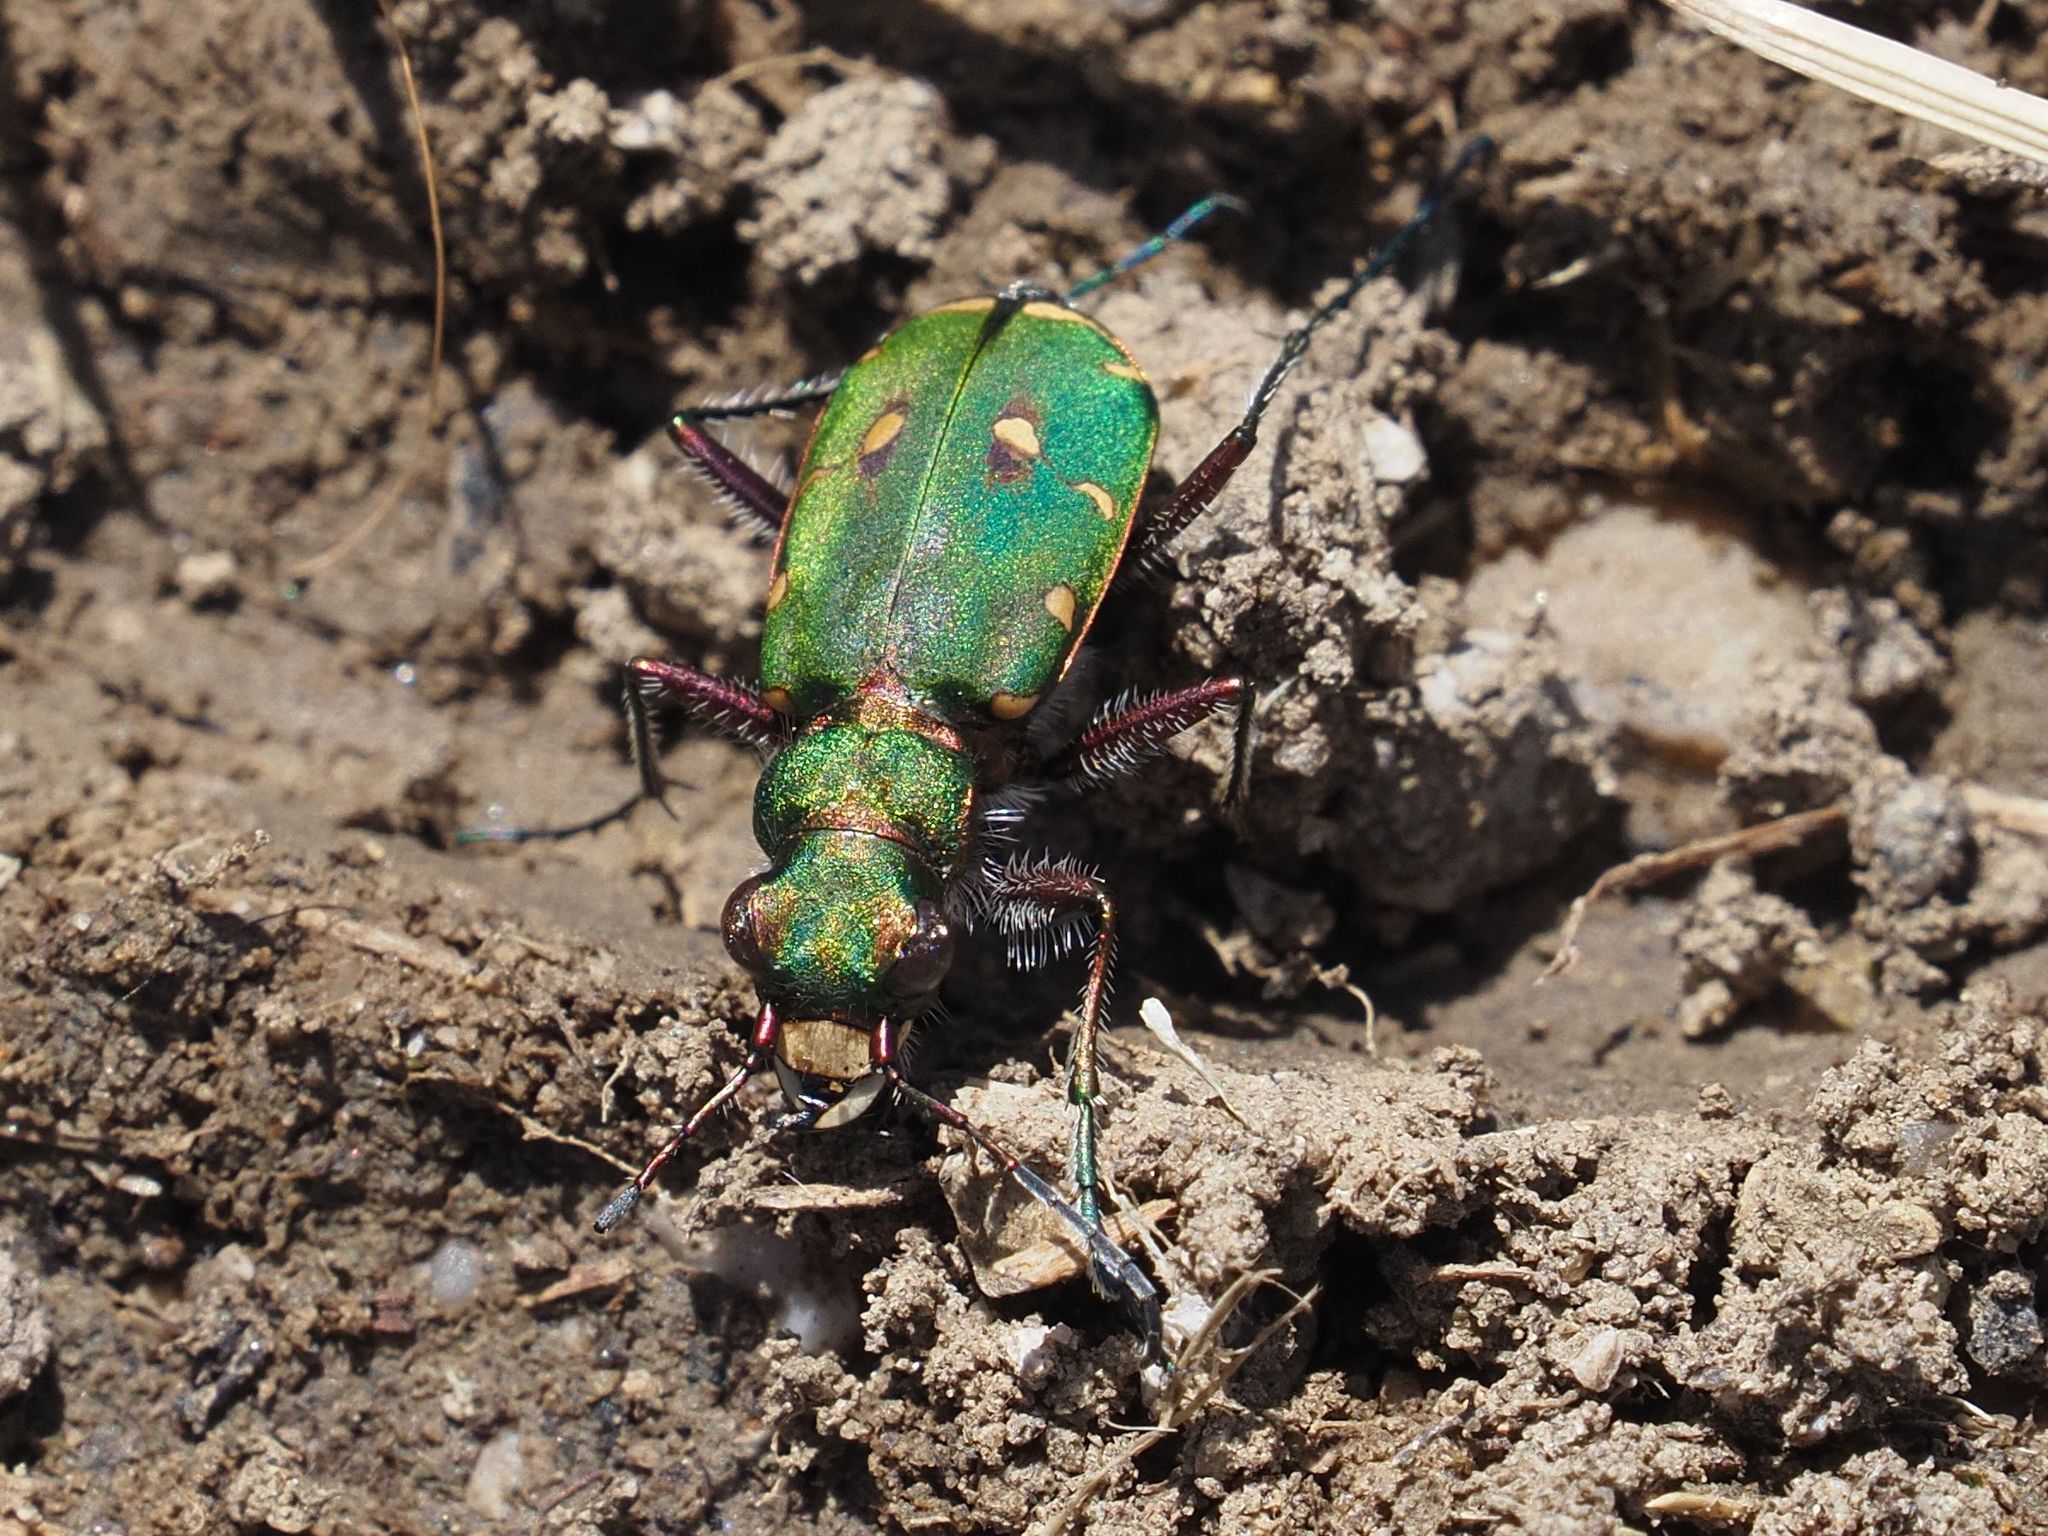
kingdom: Animalia
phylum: Arthropoda
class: Insecta
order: Coleoptera
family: Carabidae
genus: Cicindela
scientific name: Cicindela campestris
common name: Common tiger beetle
